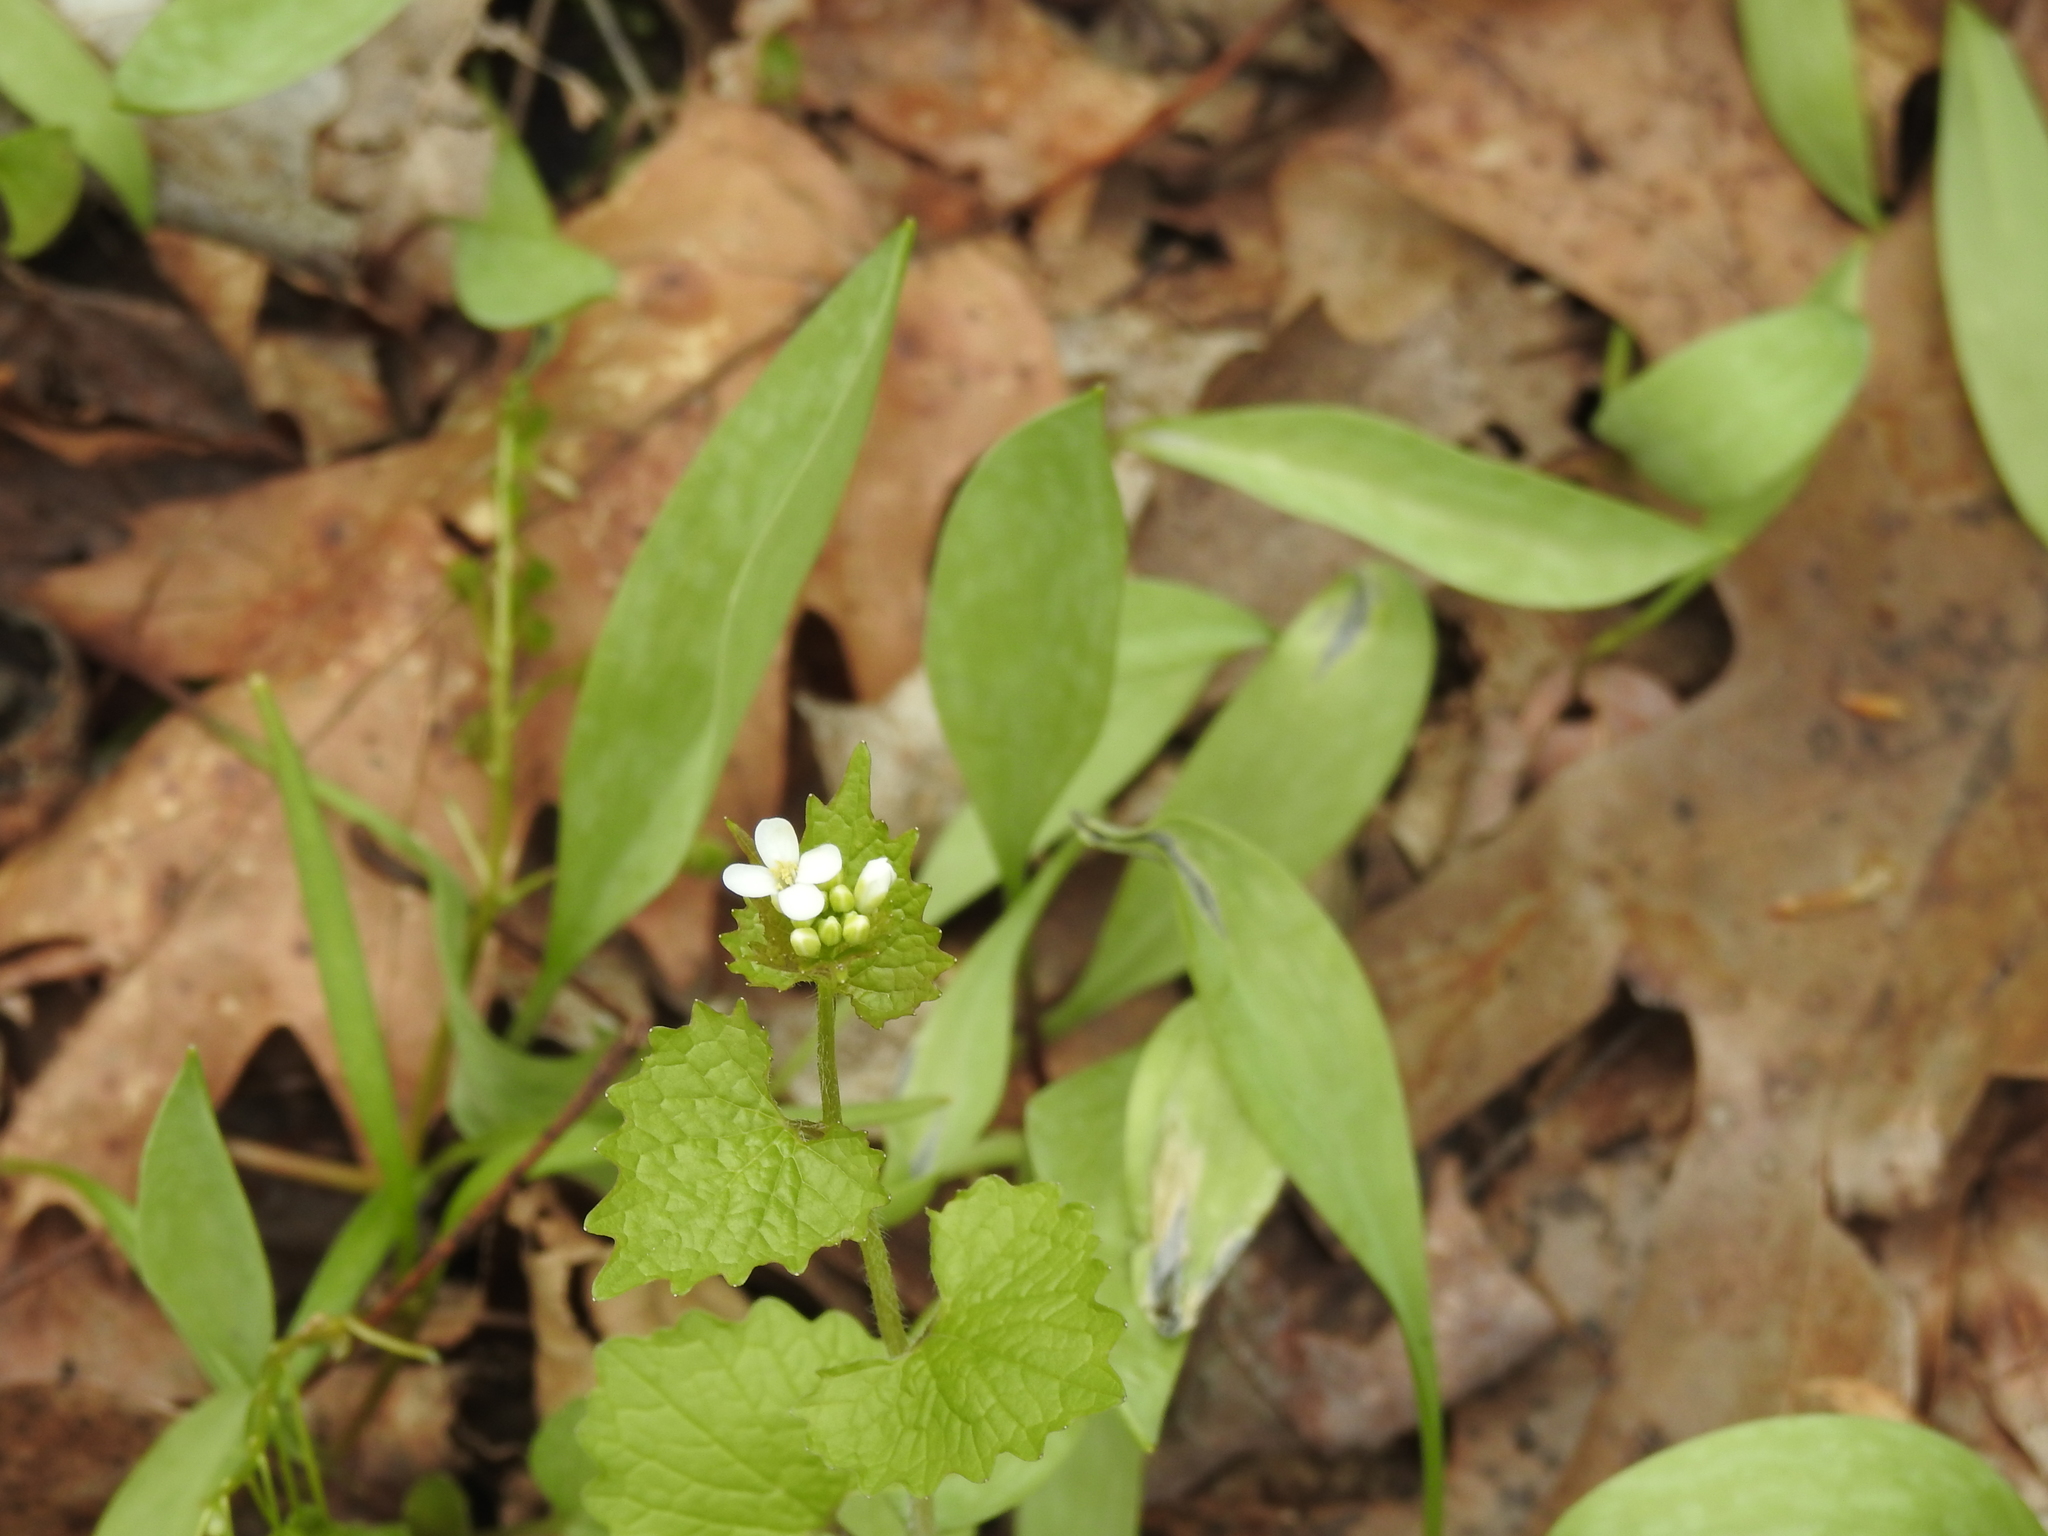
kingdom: Plantae
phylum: Tracheophyta
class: Magnoliopsida
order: Brassicales
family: Brassicaceae
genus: Alliaria
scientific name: Alliaria petiolata
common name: Garlic mustard
